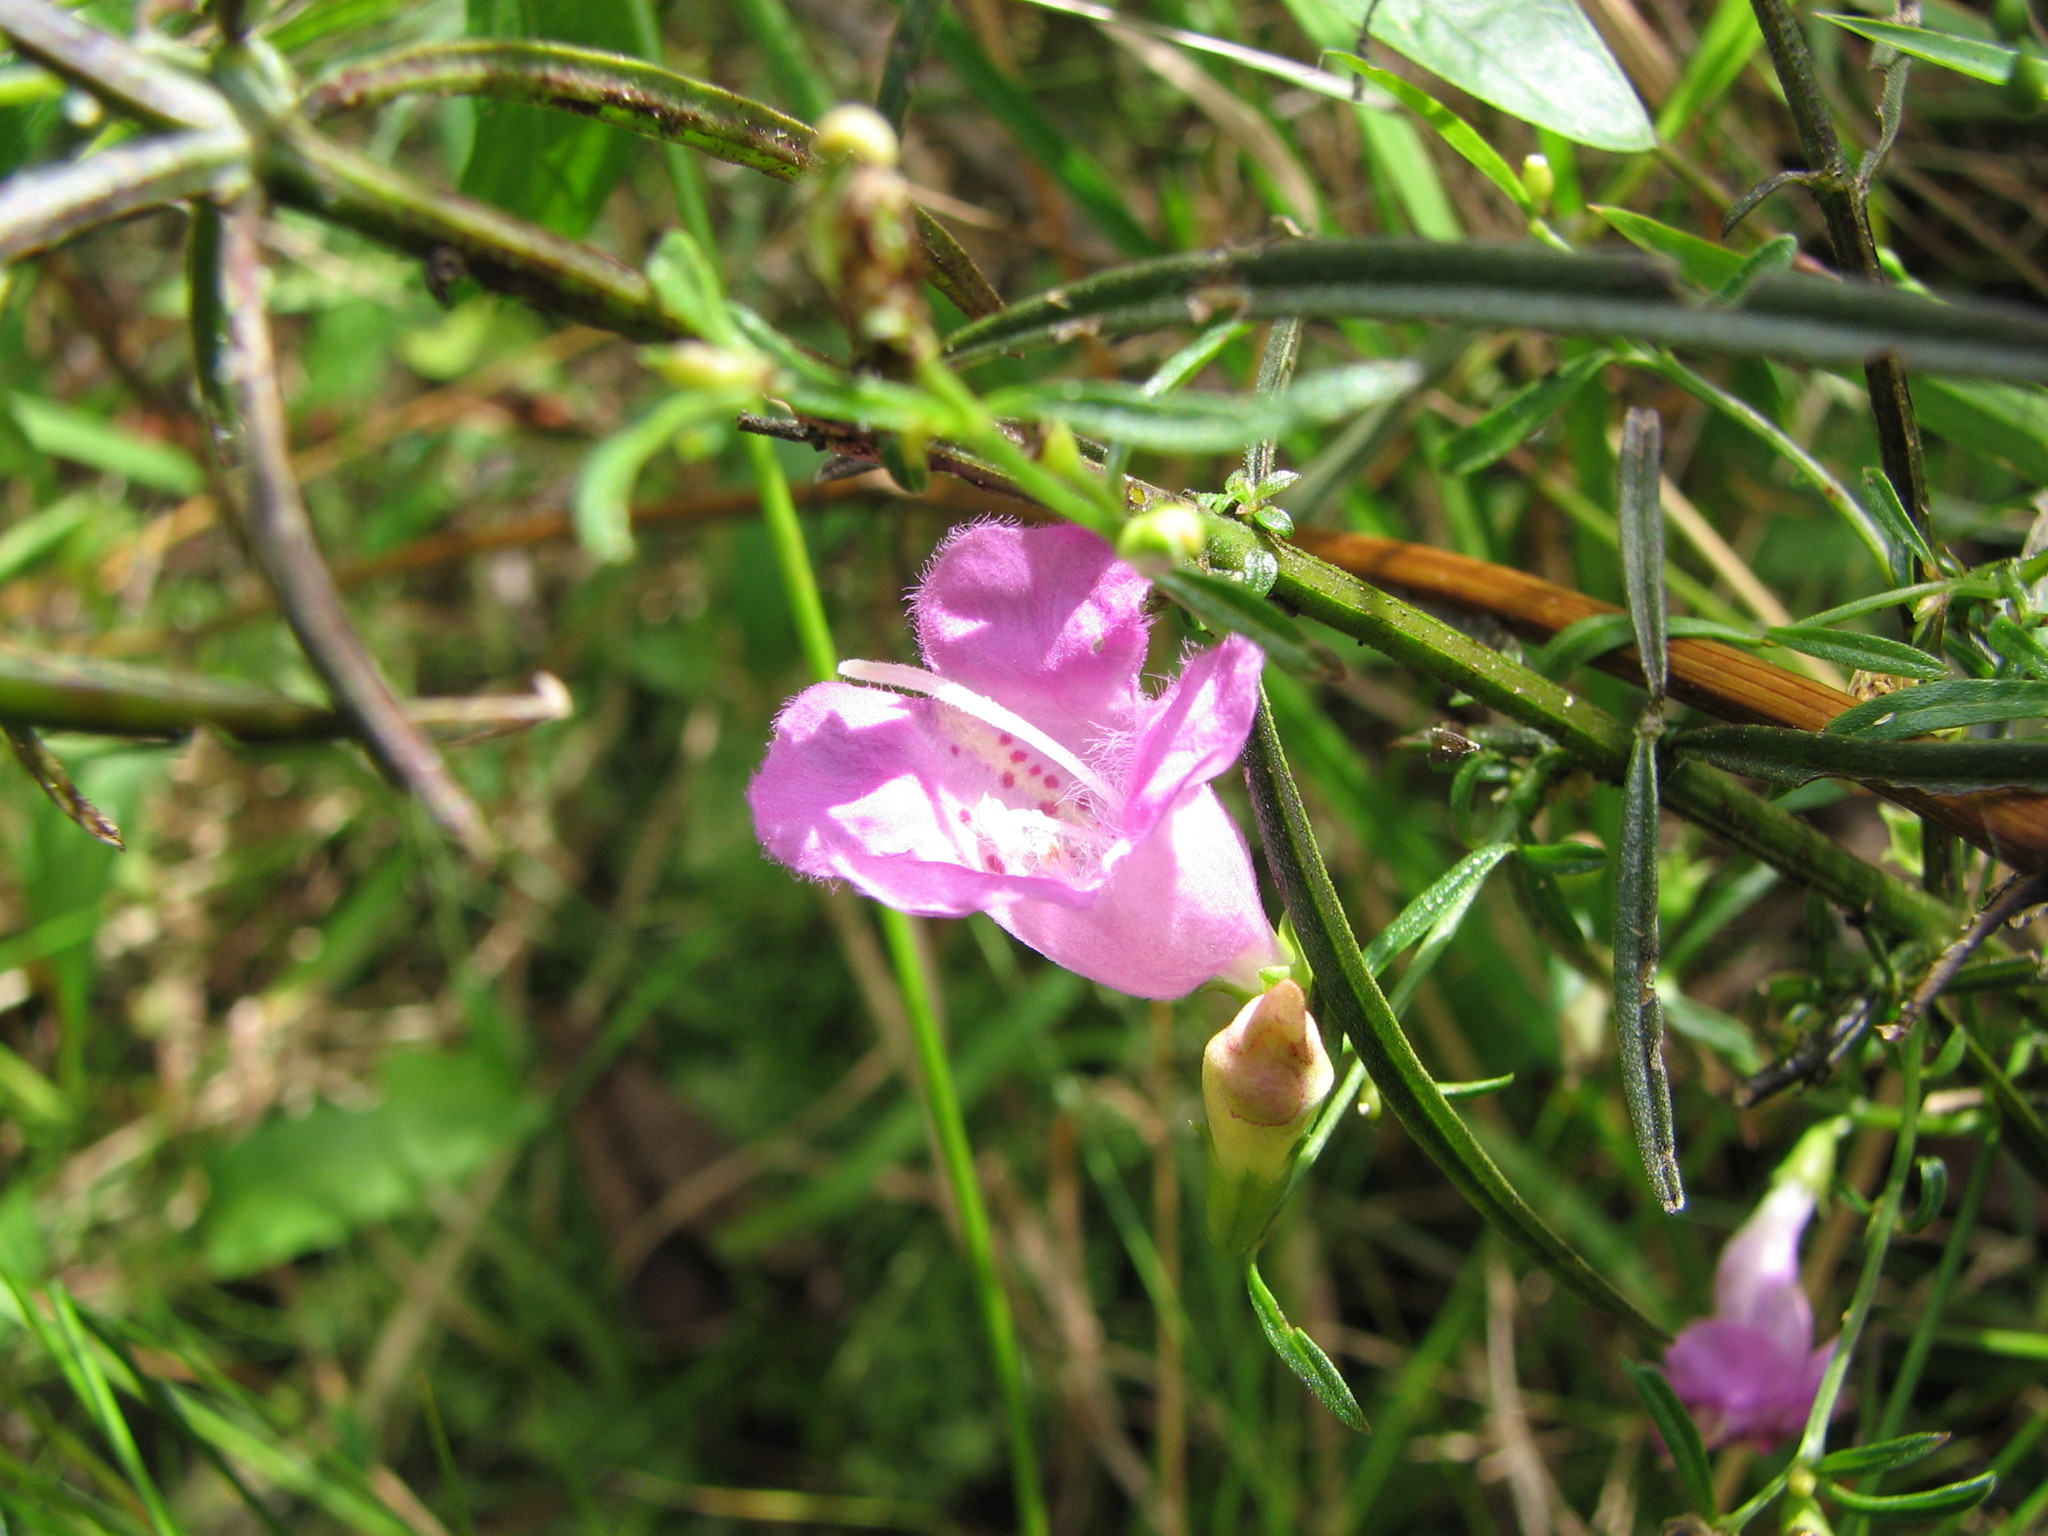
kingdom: Plantae
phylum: Tracheophyta
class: Magnoliopsida
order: Lamiales
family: Orobanchaceae
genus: Agalinis
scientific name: Agalinis purpurea
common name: Purple false foxglove
